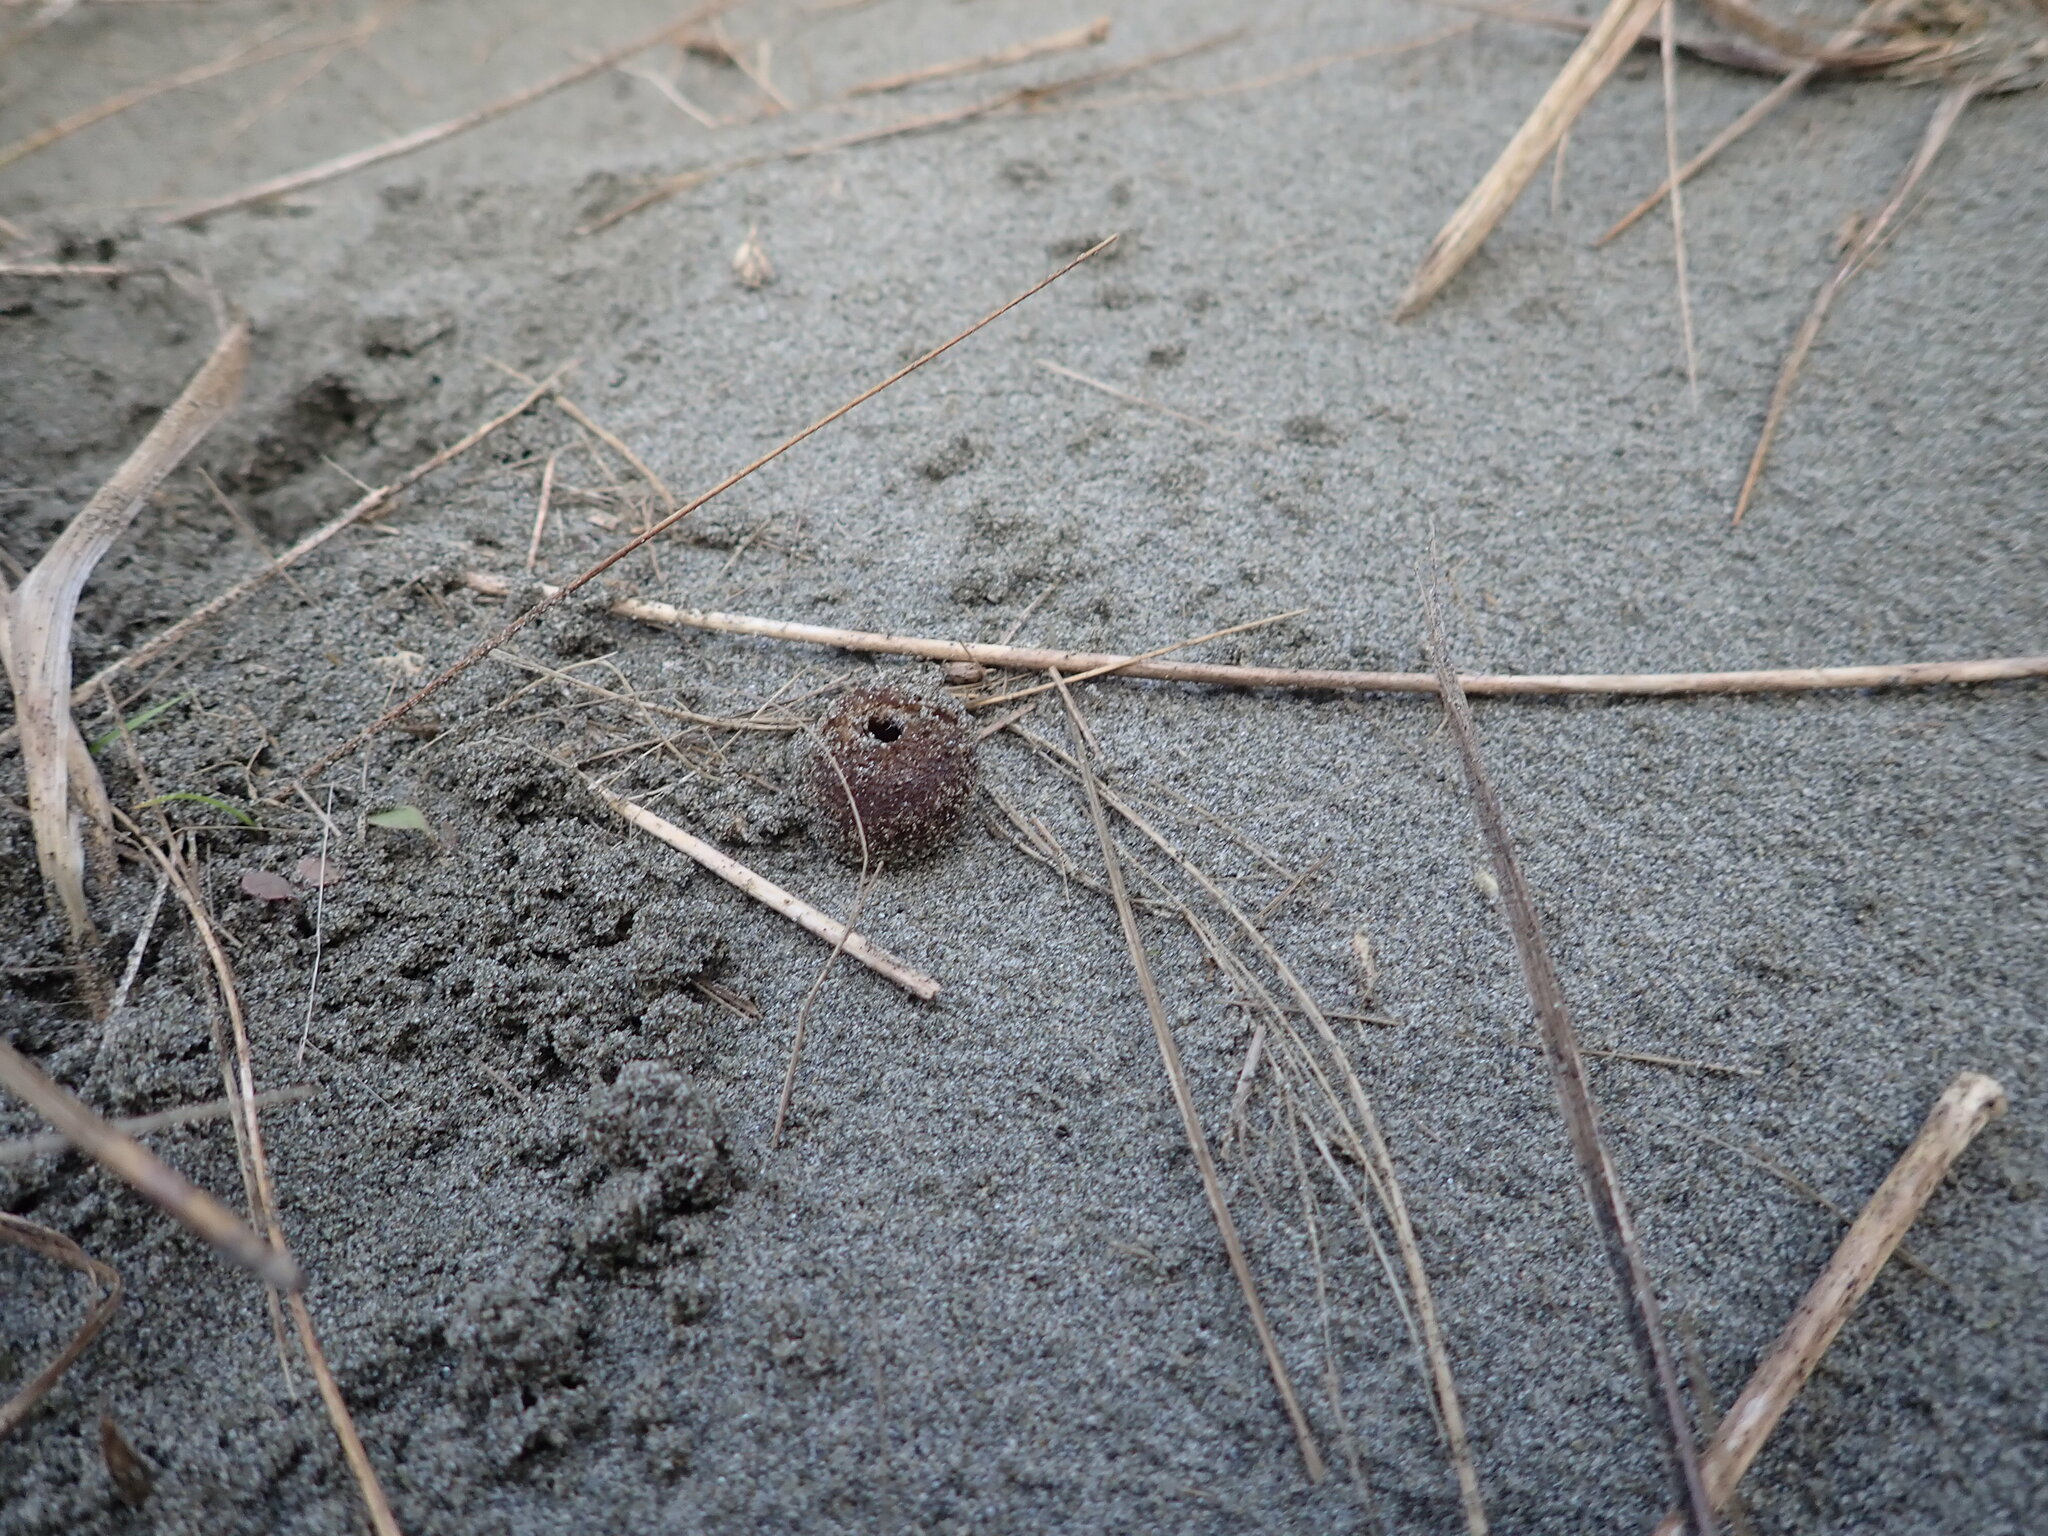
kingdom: Fungi
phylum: Ascomycota
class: Pezizomycetes
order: Pezizales
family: Pezizaceae
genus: Peziza
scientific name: Peziza oceanica
